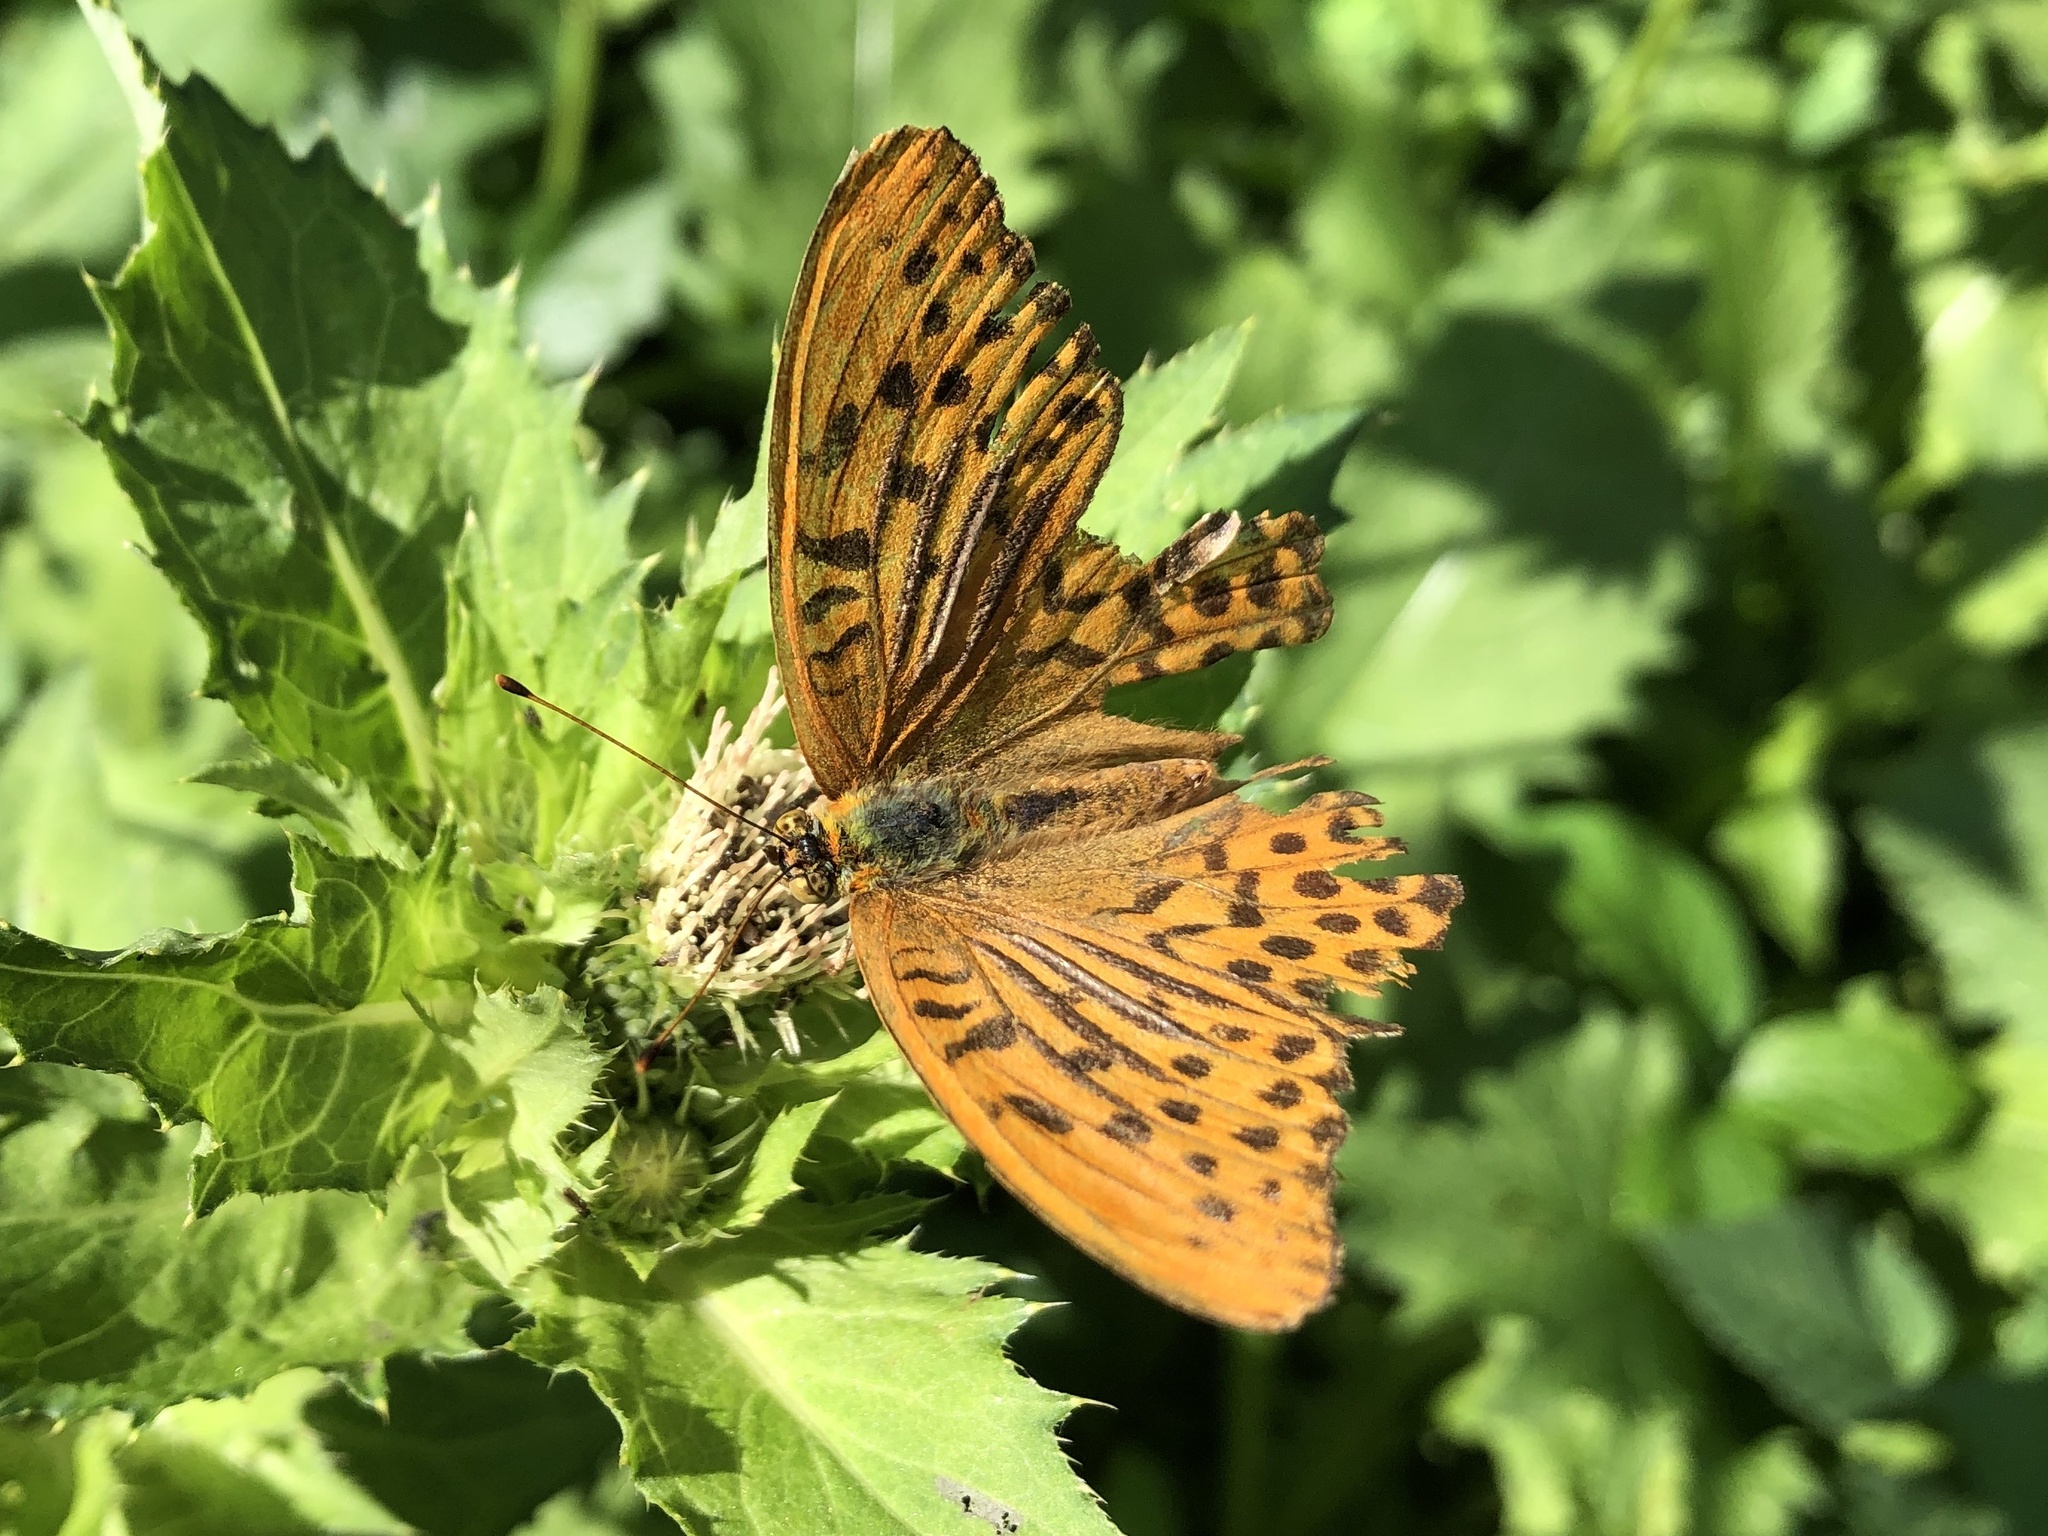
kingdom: Animalia
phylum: Arthropoda
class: Insecta
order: Lepidoptera
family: Nymphalidae
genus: Argynnis
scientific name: Argynnis paphia
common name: Silver-washed fritillary
